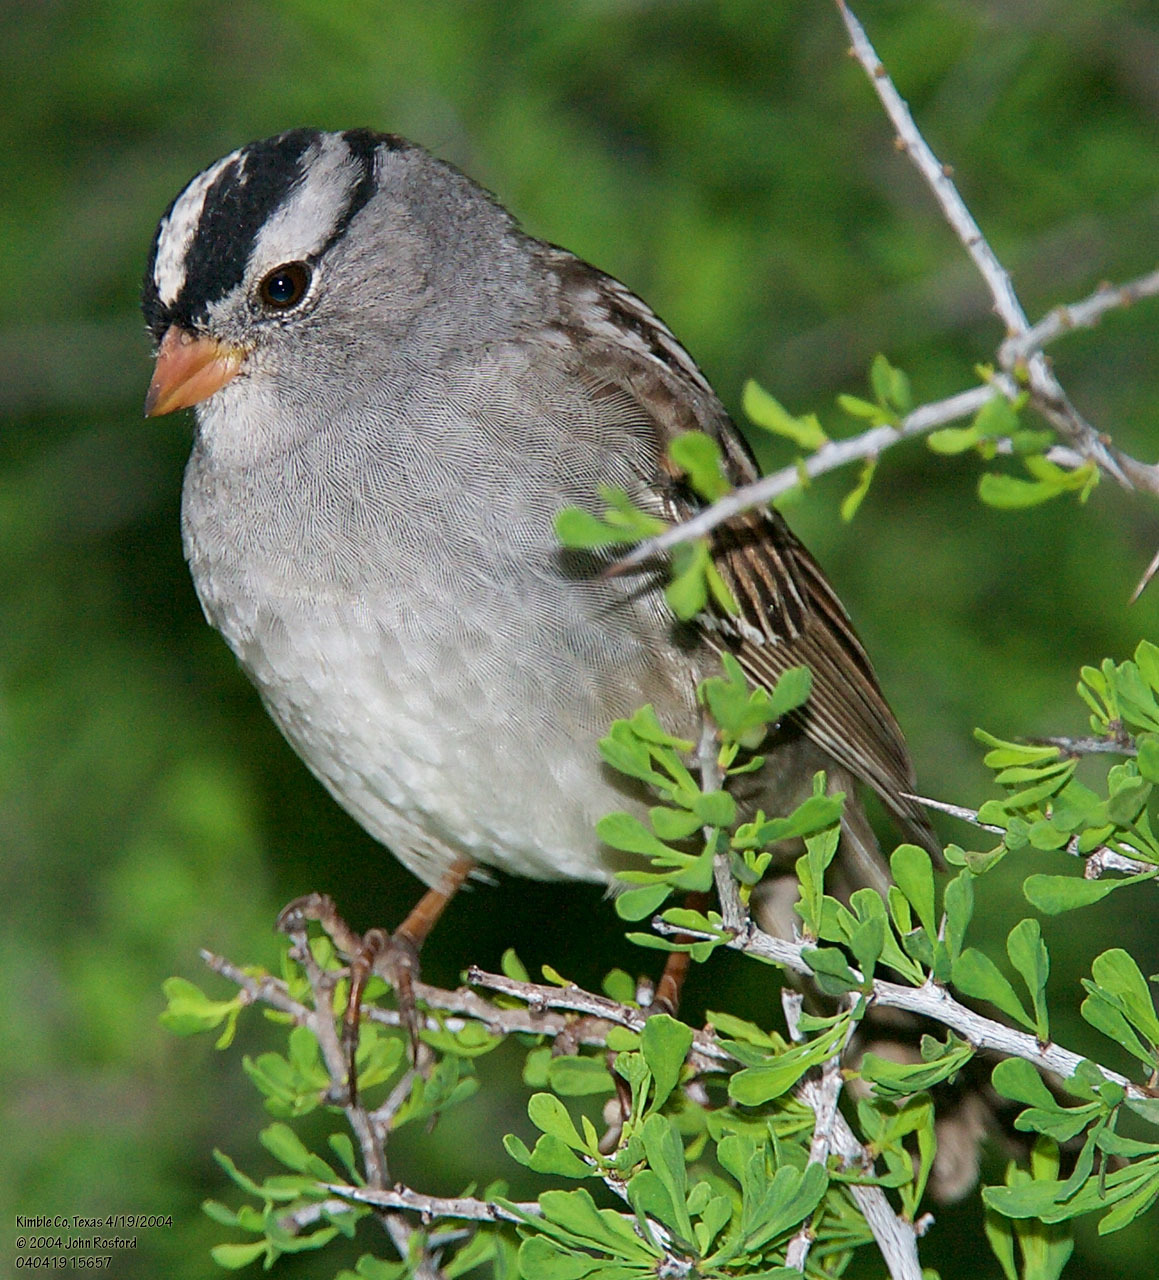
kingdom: Animalia
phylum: Chordata
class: Aves
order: Passeriformes
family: Passerellidae
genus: Zonotrichia
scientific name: Zonotrichia leucophrys
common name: White-crowned sparrow
